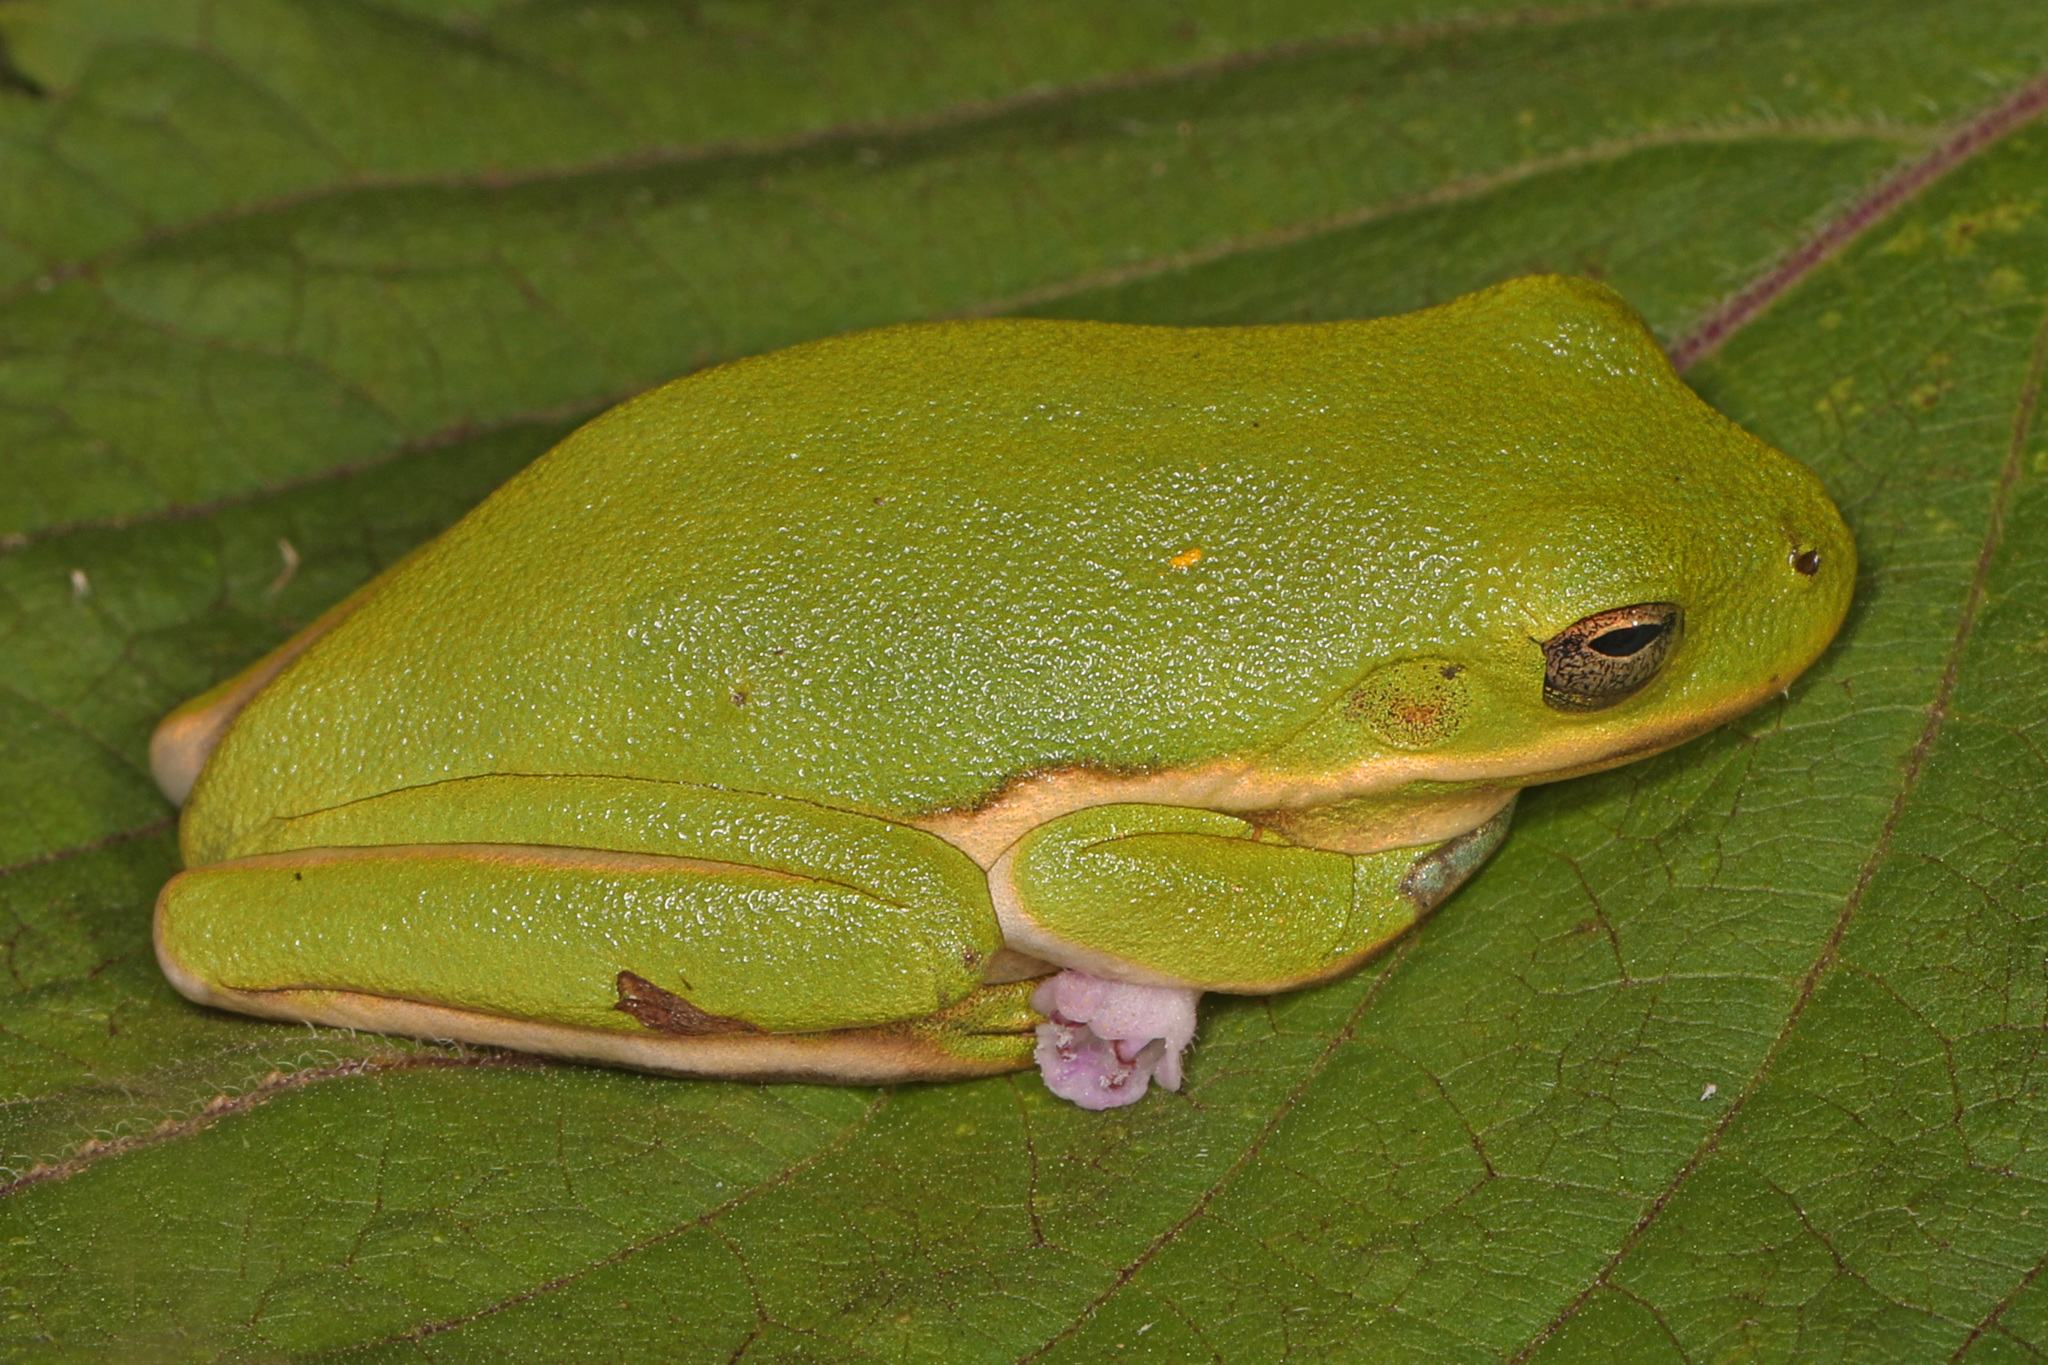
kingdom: Animalia
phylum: Chordata
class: Amphibia
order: Anura
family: Hylidae
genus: Dryophytes
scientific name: Dryophytes cinereus
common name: Green treefrog
